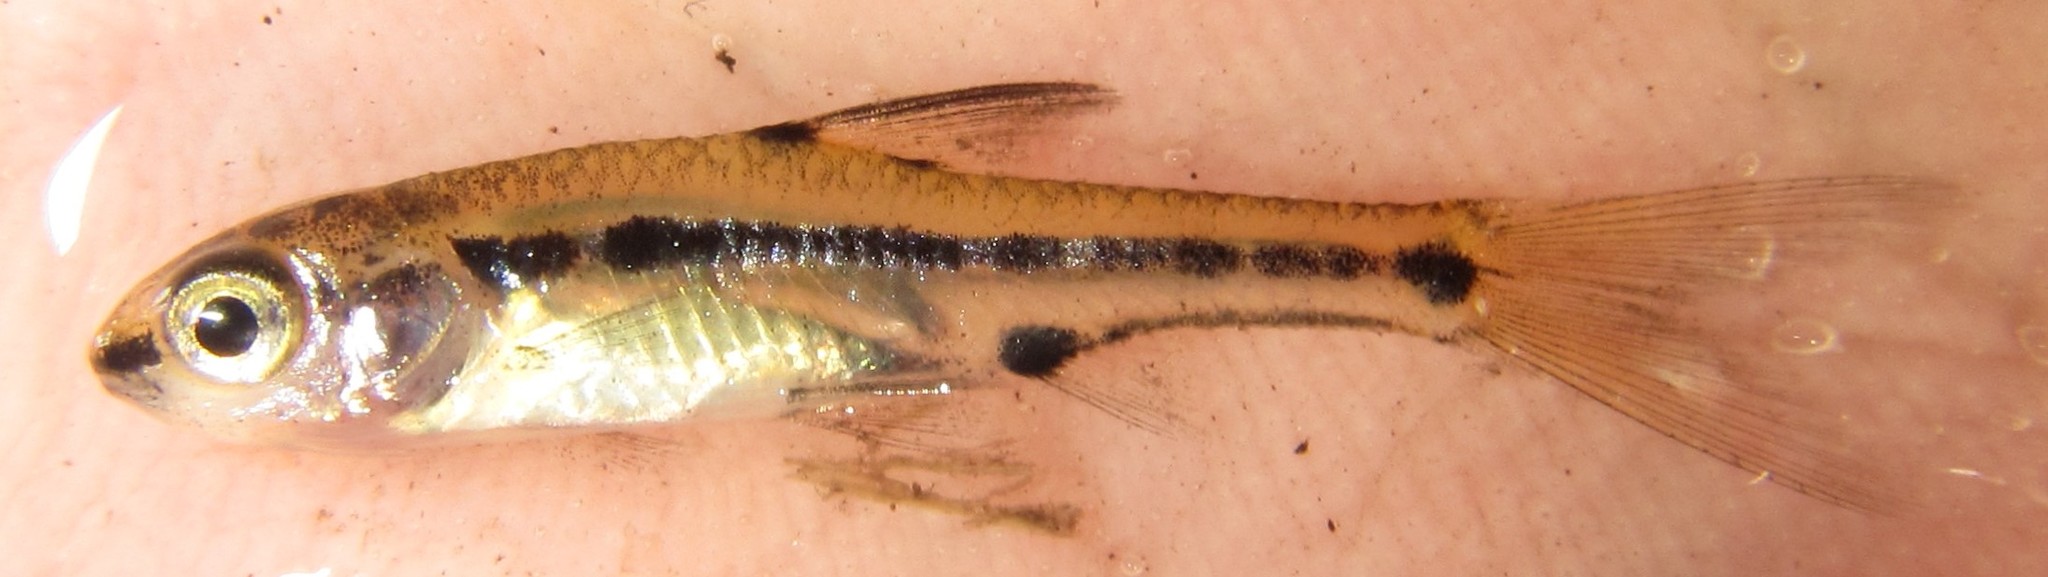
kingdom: Animalia
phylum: Chordata
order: Cypriniformes
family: Cyprinidae
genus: Enteromius
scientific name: Enteromius barnardi
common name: Blackback barb
